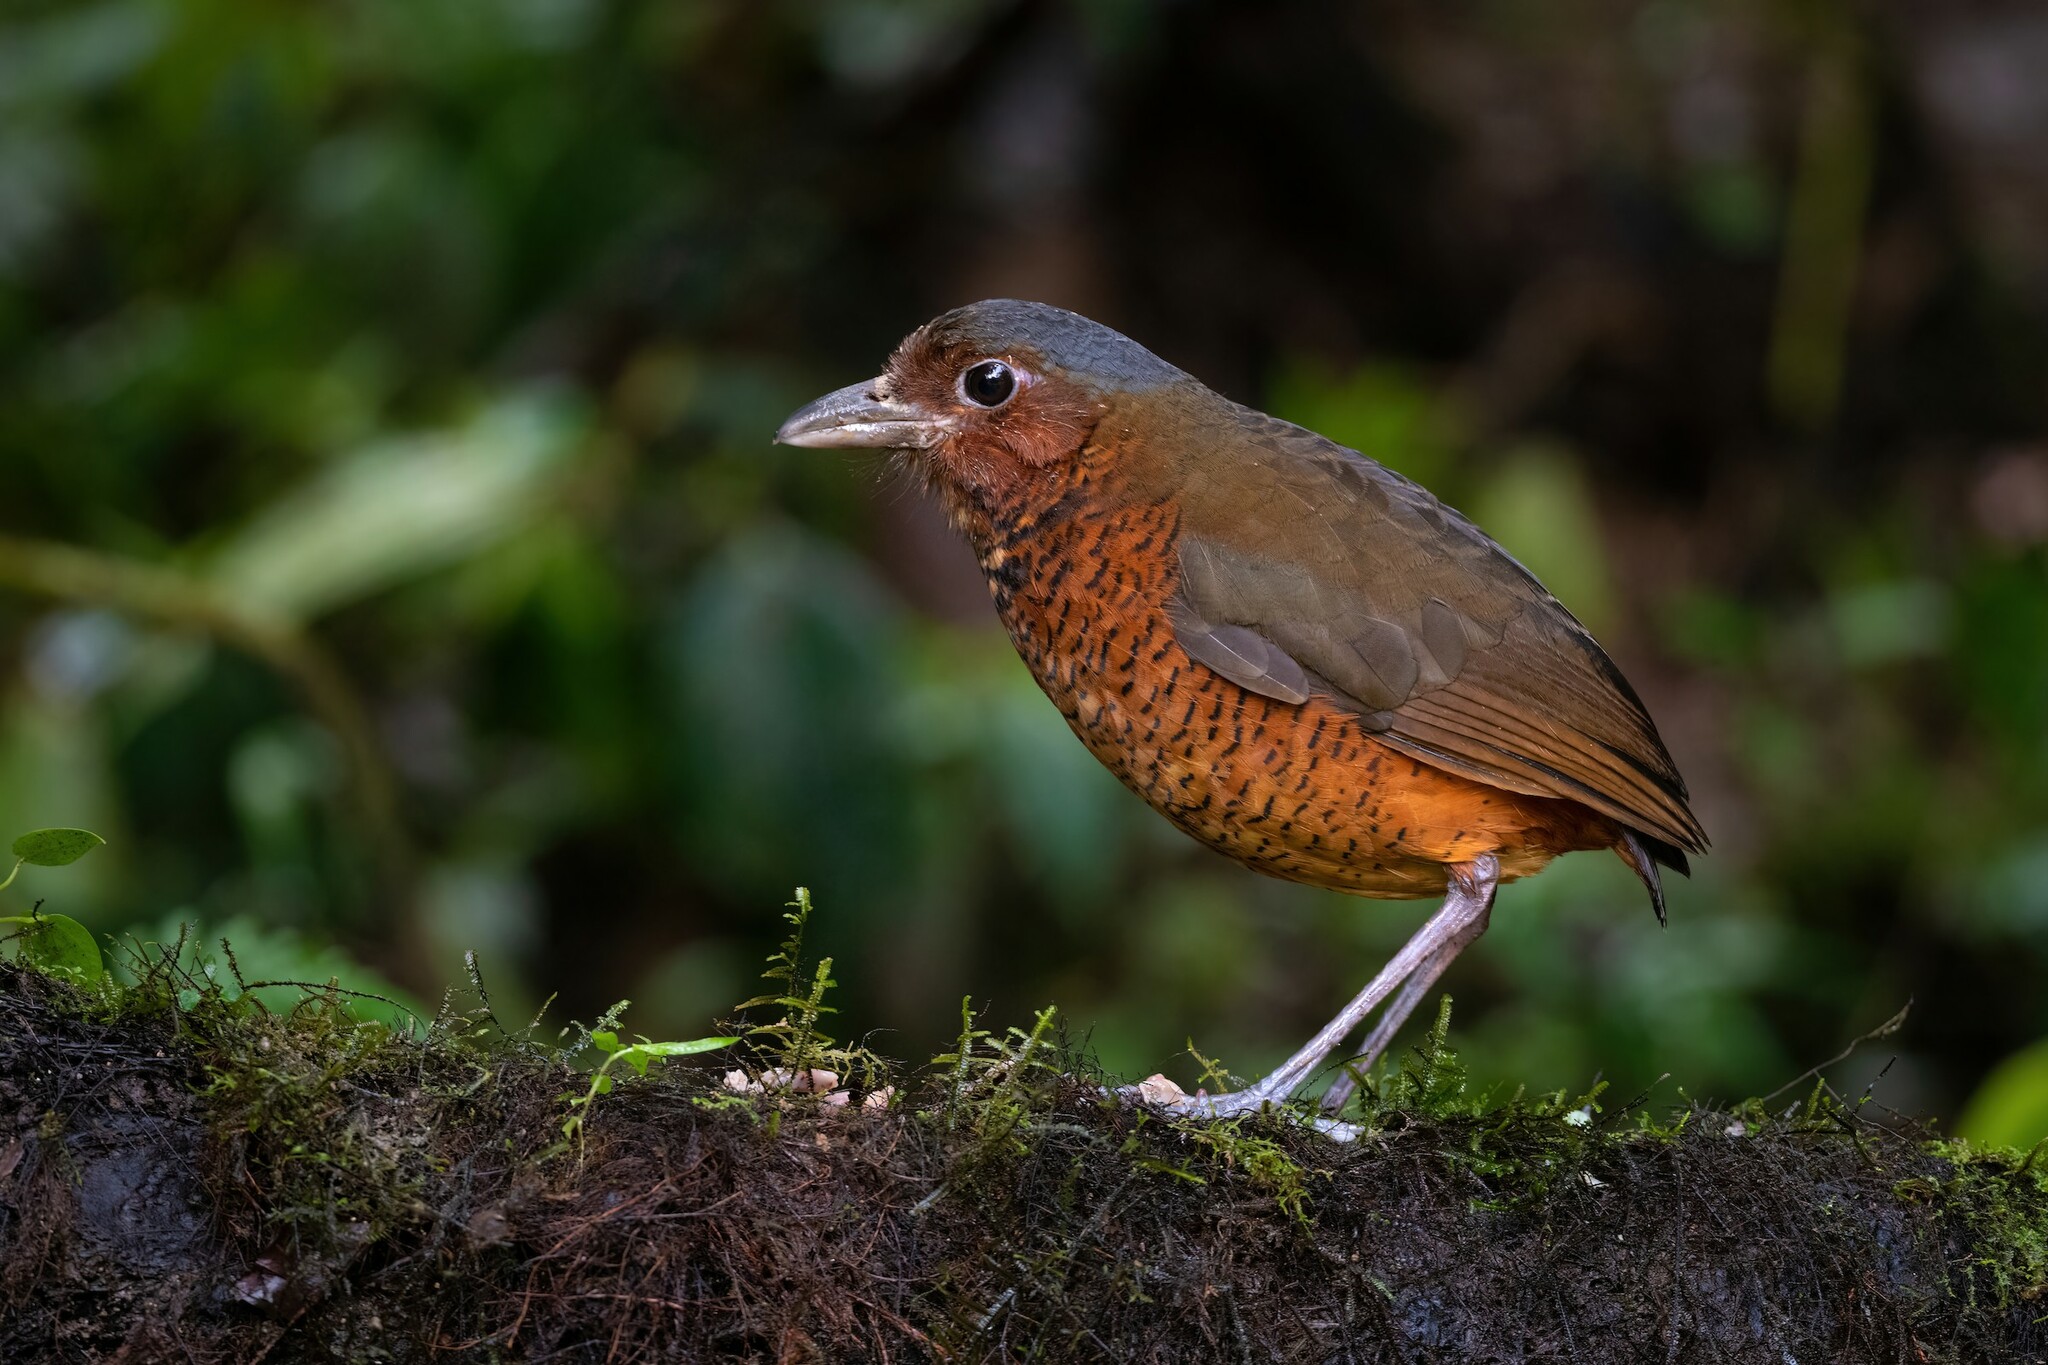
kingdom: Animalia
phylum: Chordata
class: Aves
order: Passeriformes
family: Grallariidae
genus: Grallaria
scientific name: Grallaria gigantea
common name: Giant antpitta
